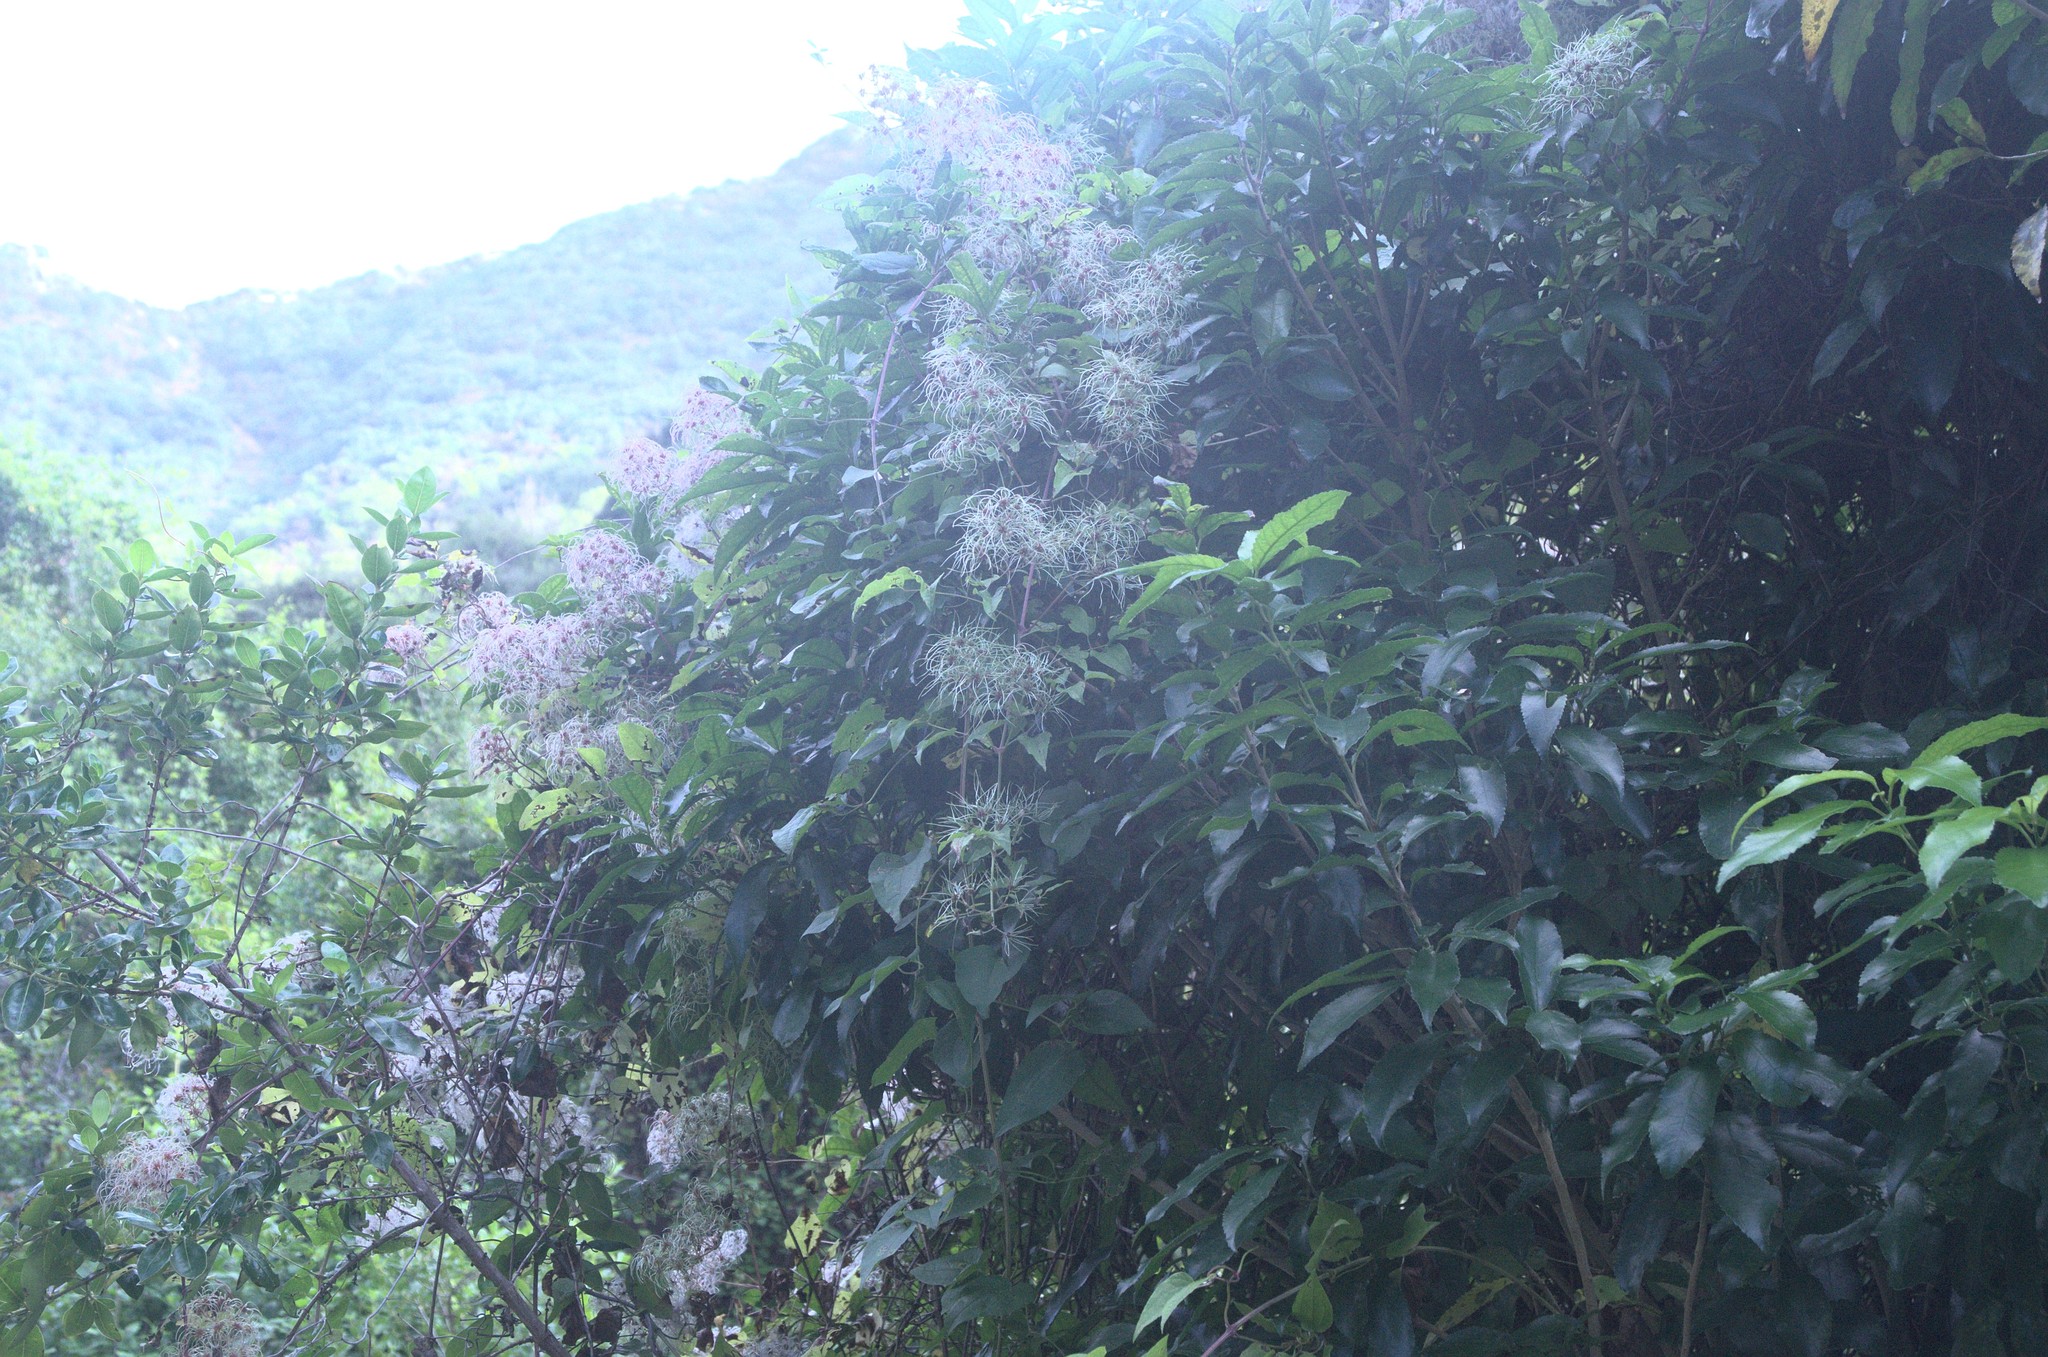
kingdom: Plantae
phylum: Tracheophyta
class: Magnoliopsida
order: Ranunculales
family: Ranunculaceae
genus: Clematis
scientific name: Clematis vitalba
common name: Evergreen clematis
